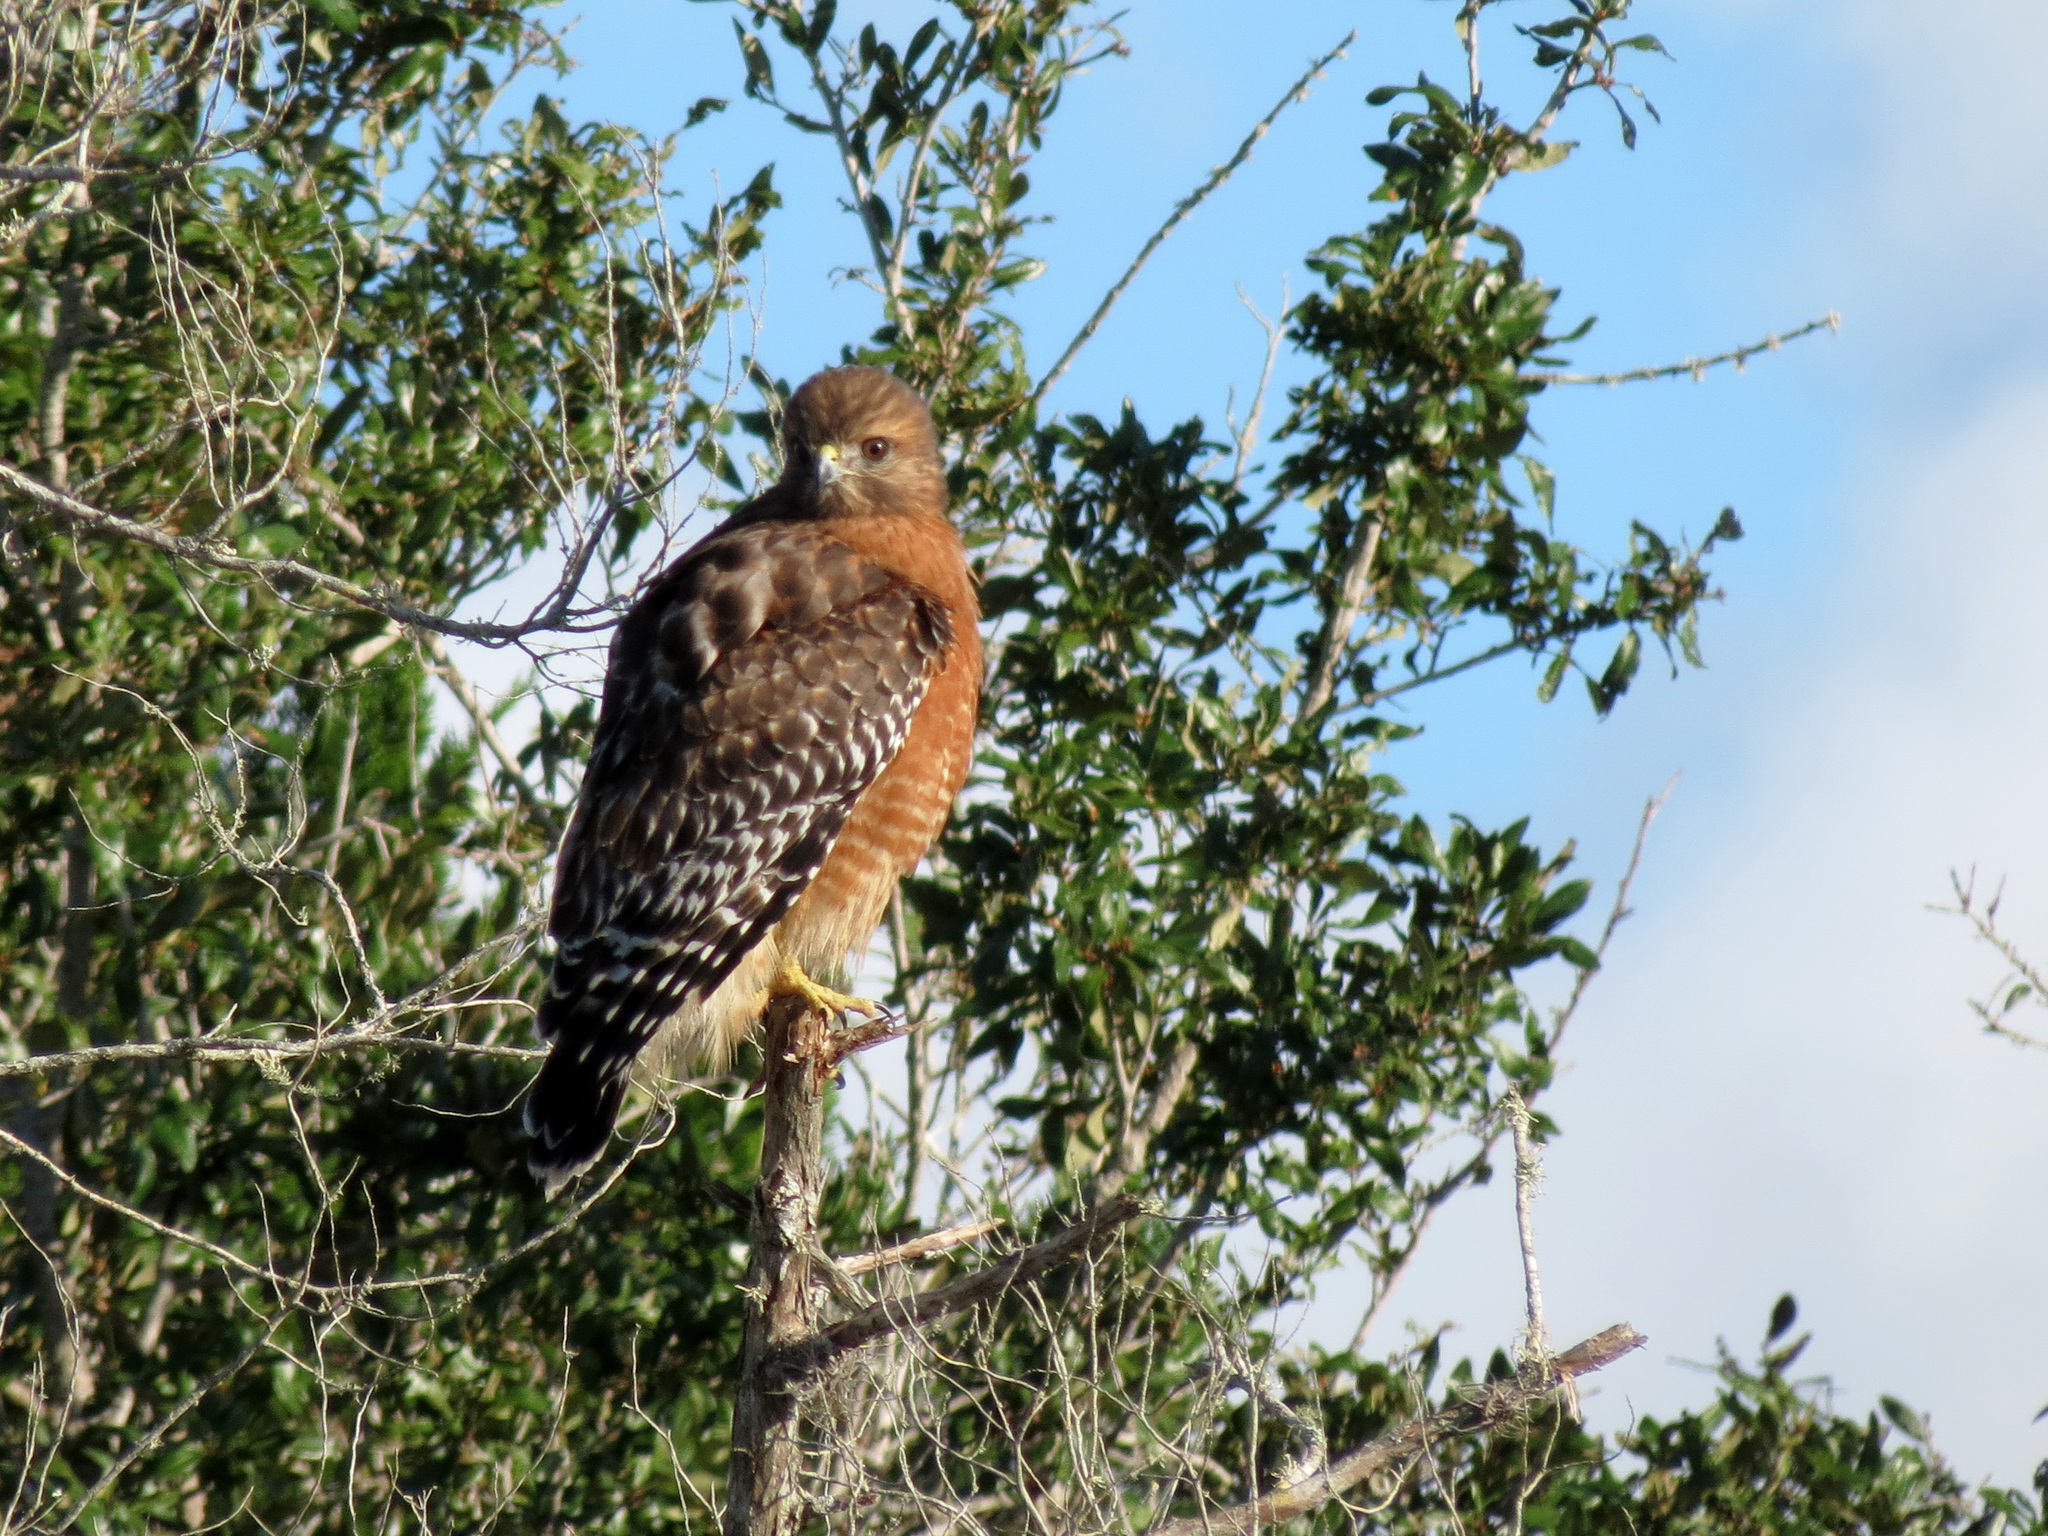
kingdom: Animalia
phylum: Chordata
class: Aves
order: Accipitriformes
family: Accipitridae
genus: Buteo
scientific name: Buteo lineatus
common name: Red-shouldered hawk
